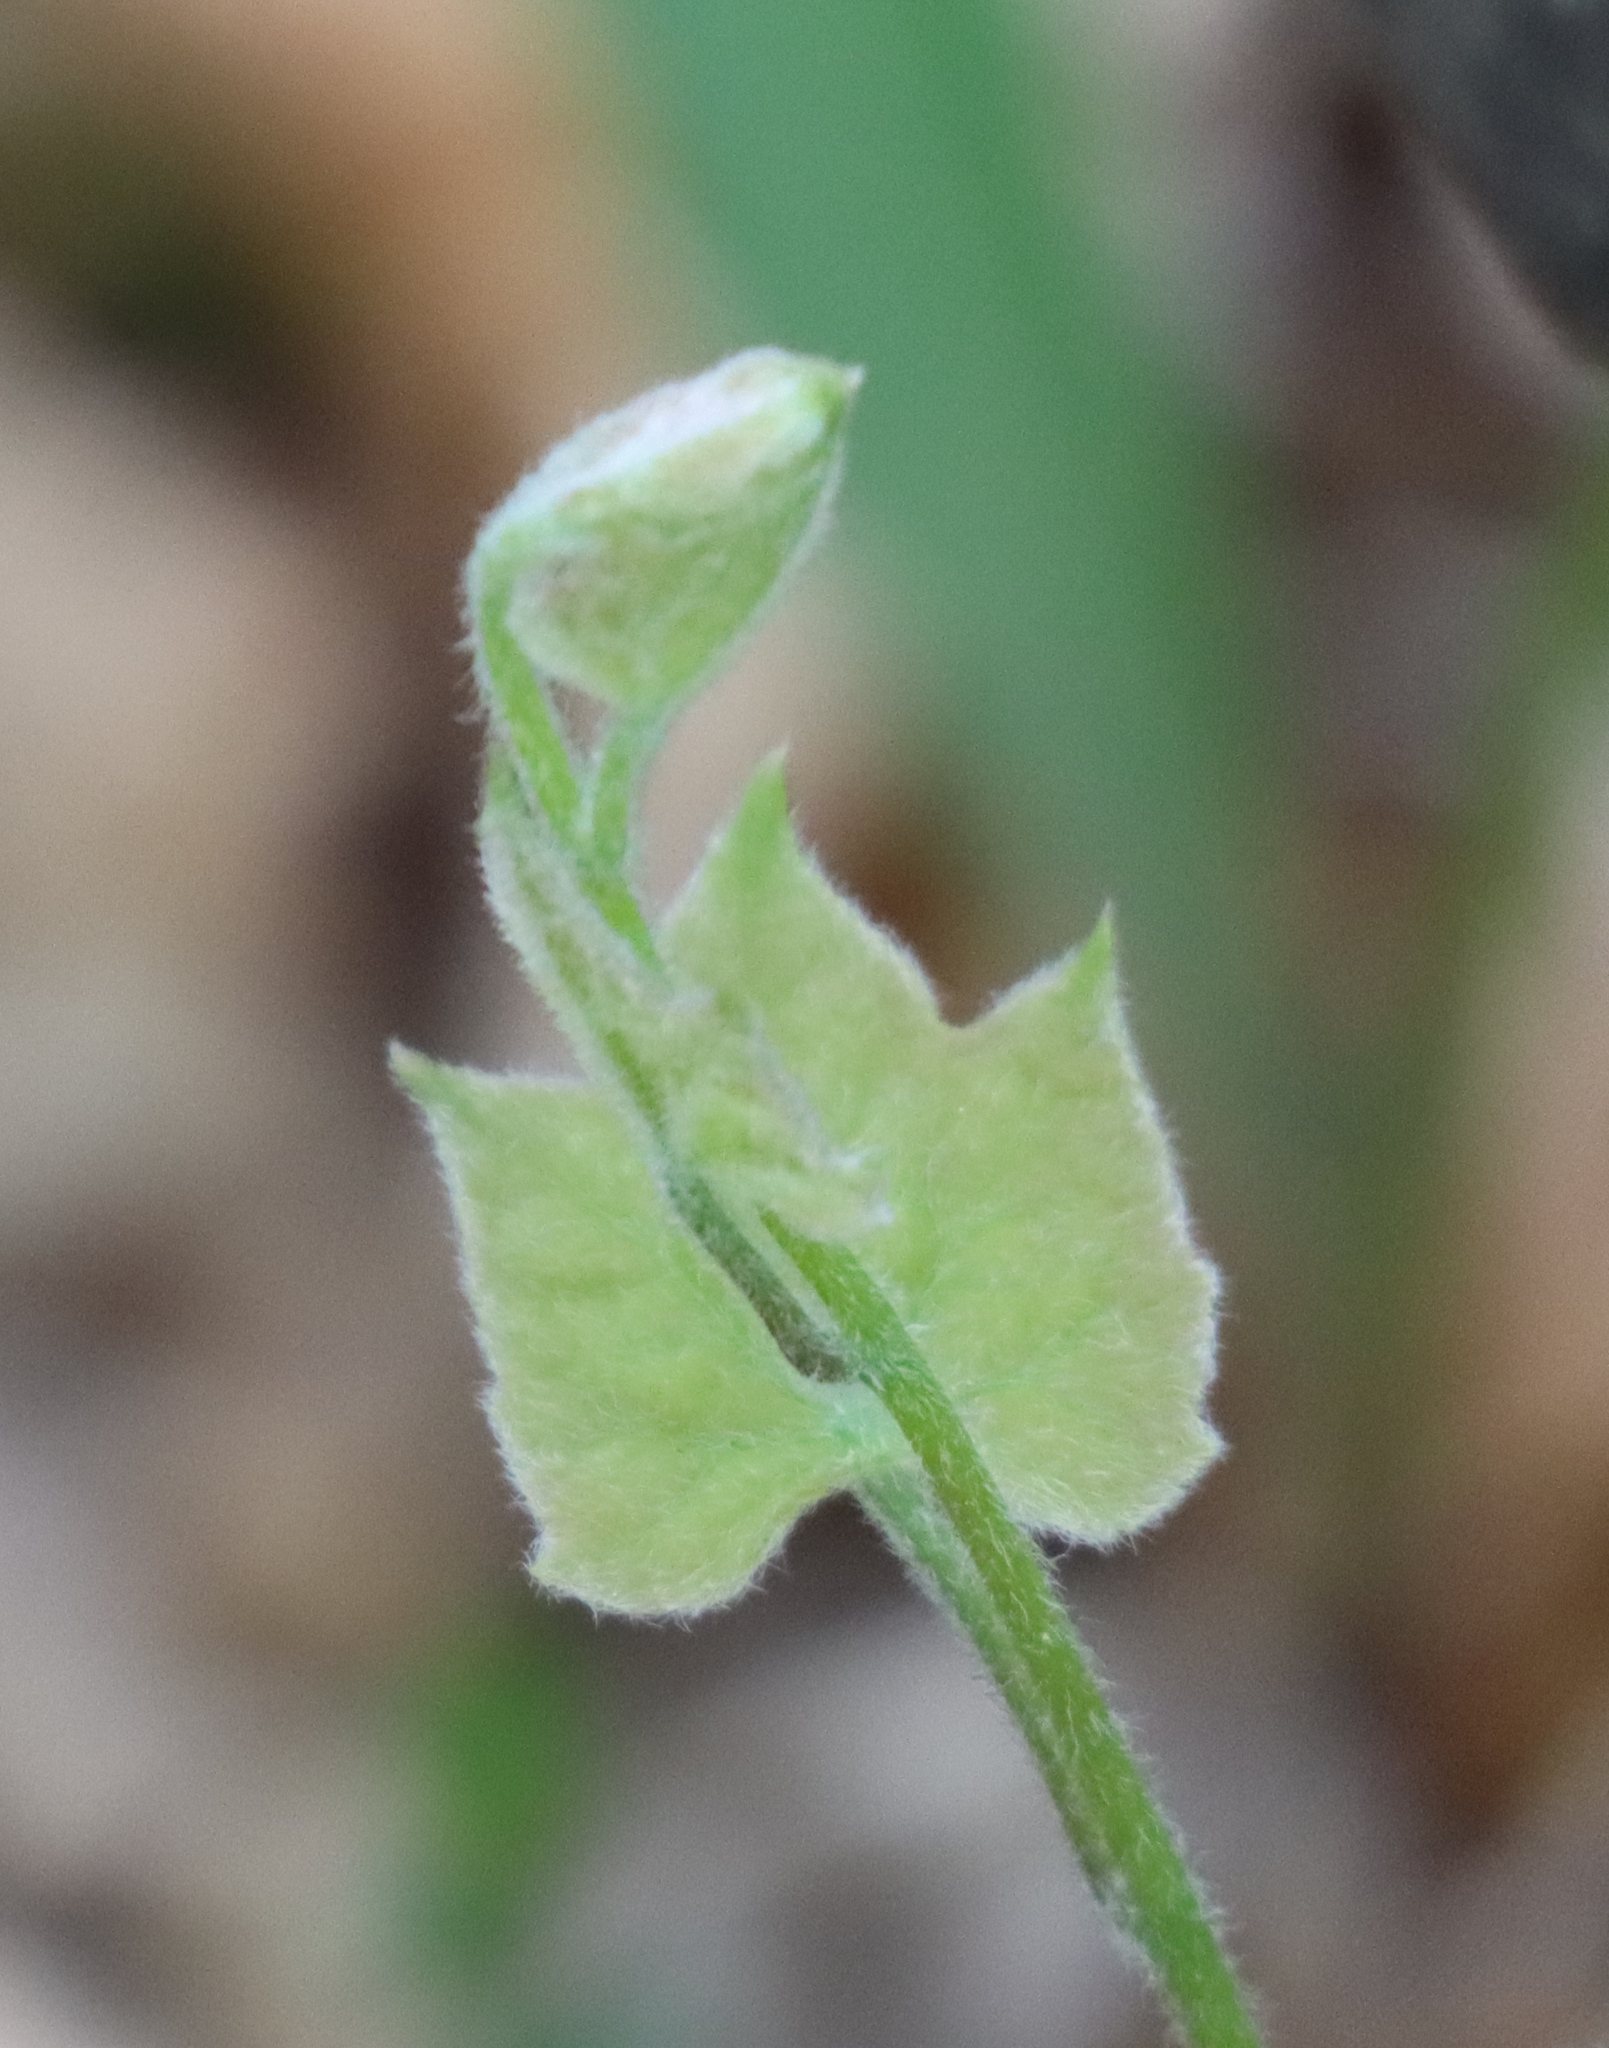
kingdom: Plantae
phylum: Tracheophyta
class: Magnoliopsida
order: Ranunculales
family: Menispermaceae
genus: Menispermum
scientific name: Menispermum canadense
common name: Moonseed
